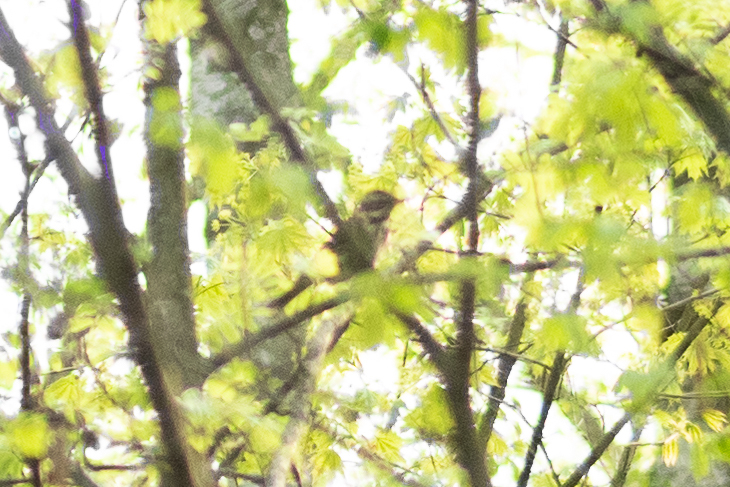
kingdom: Animalia
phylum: Chordata
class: Aves
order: Passeriformes
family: Muscicapidae
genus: Saxicola
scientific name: Saxicola rubetra
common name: Whinchat
